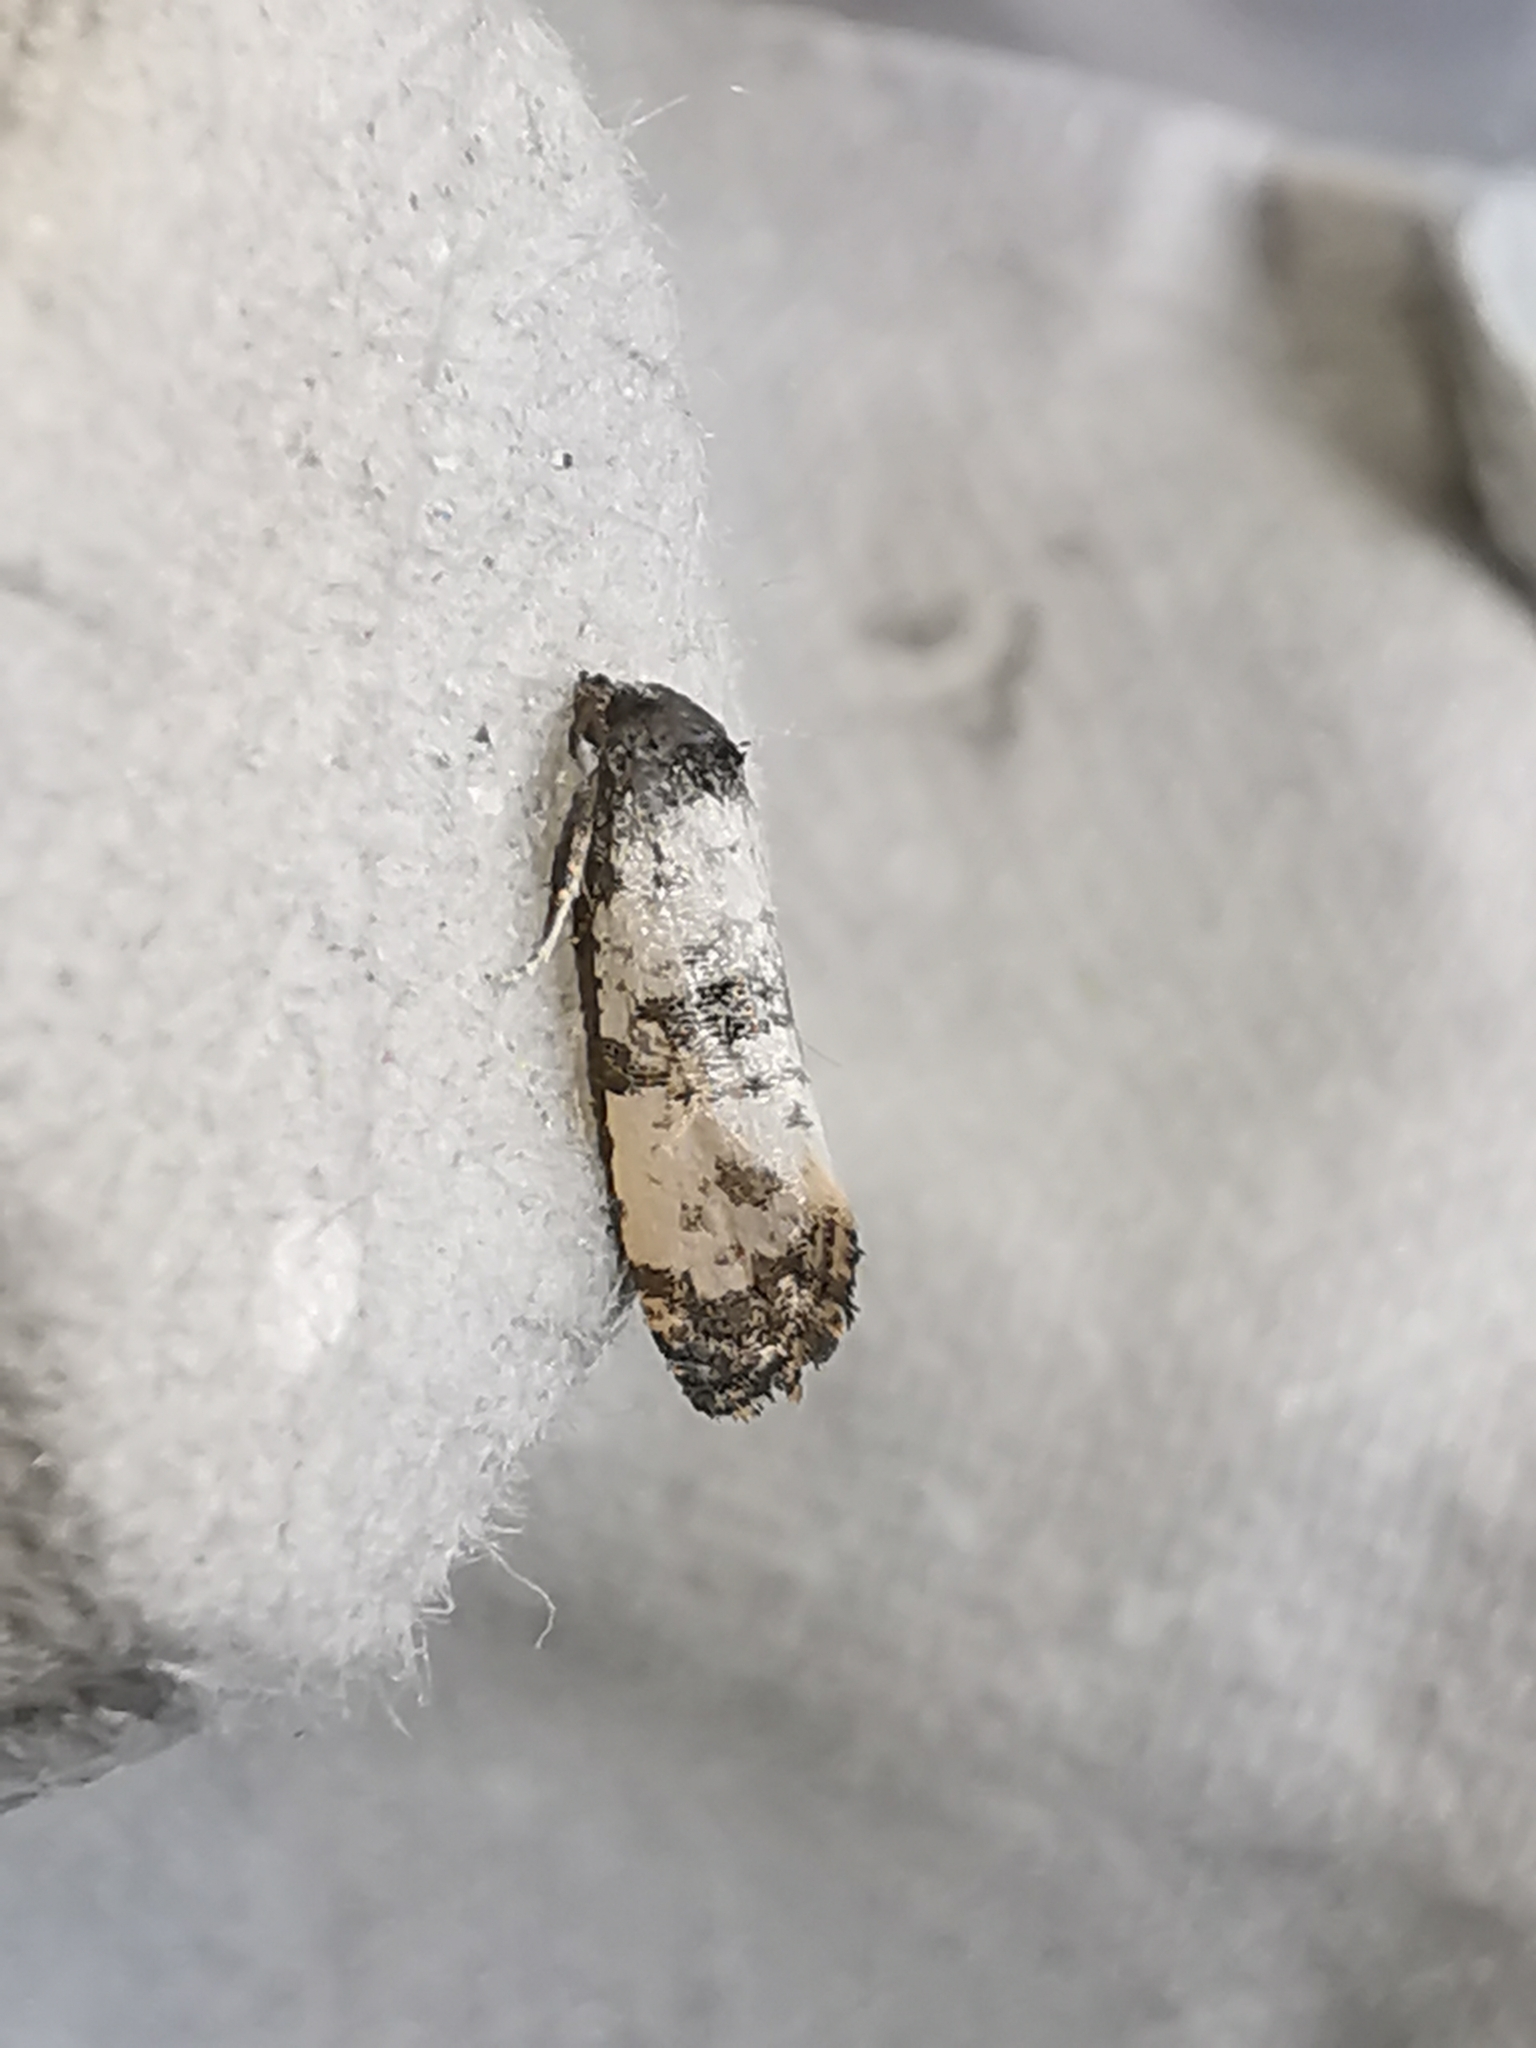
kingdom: Animalia
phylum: Arthropoda
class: Insecta
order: Lepidoptera
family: Tortricidae
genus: Cochylis
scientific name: Cochylis atricapitana
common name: Tortricid moth
